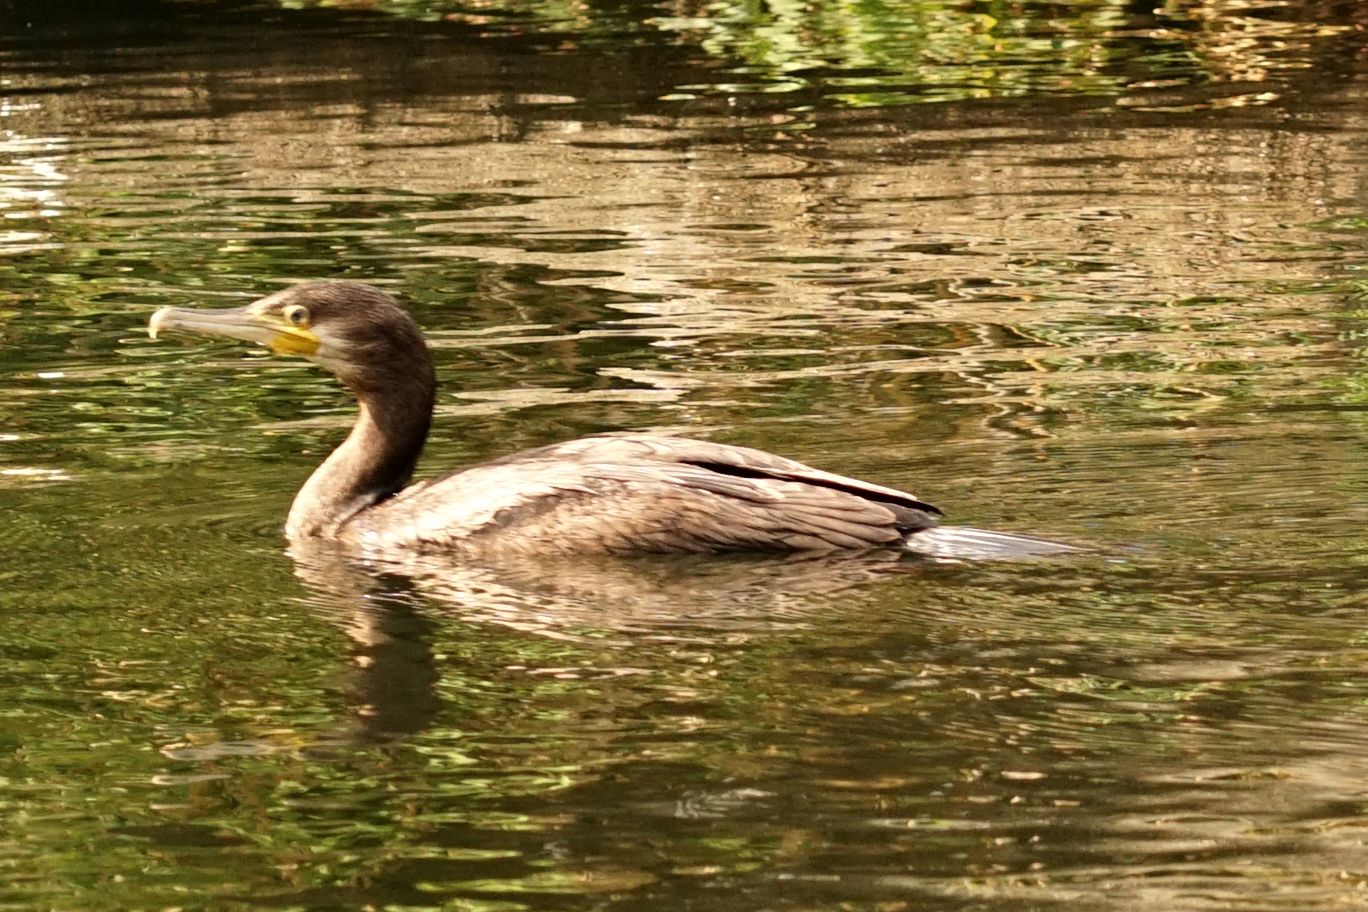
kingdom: Animalia
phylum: Chordata
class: Aves
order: Suliformes
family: Phalacrocoracidae
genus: Phalacrocorax
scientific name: Phalacrocorax carbo
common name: Great cormorant
